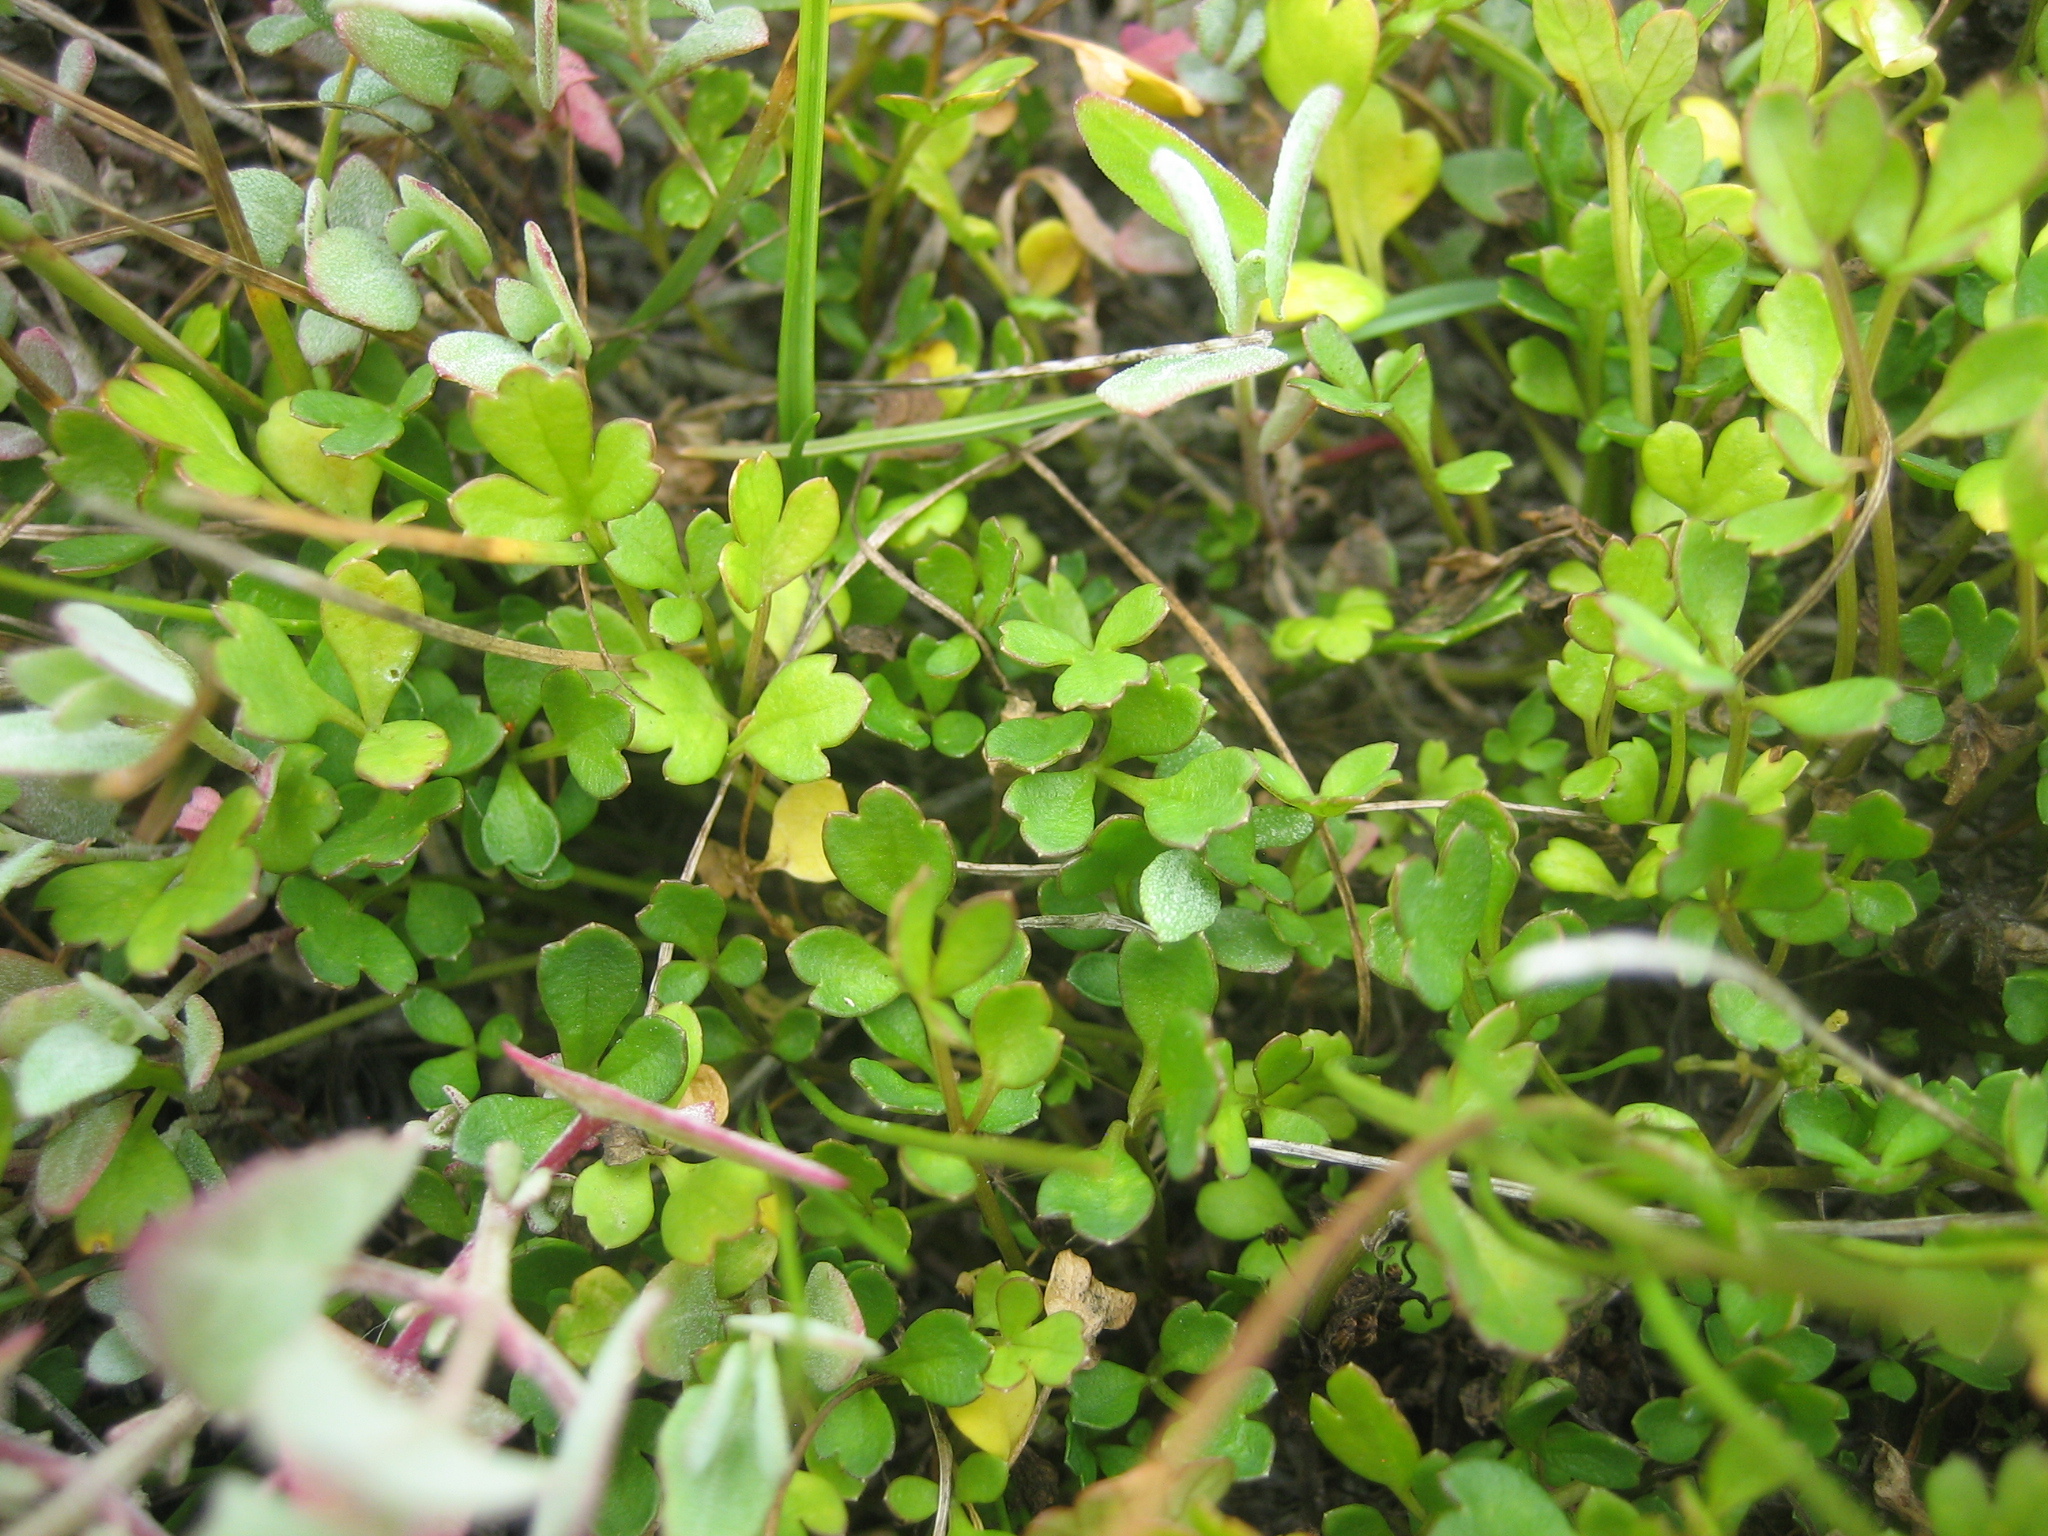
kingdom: Plantae
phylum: Tracheophyta
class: Magnoliopsida
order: Apiales
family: Apiaceae
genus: Apium
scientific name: Apium prostratum
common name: Prostrate marshwort
